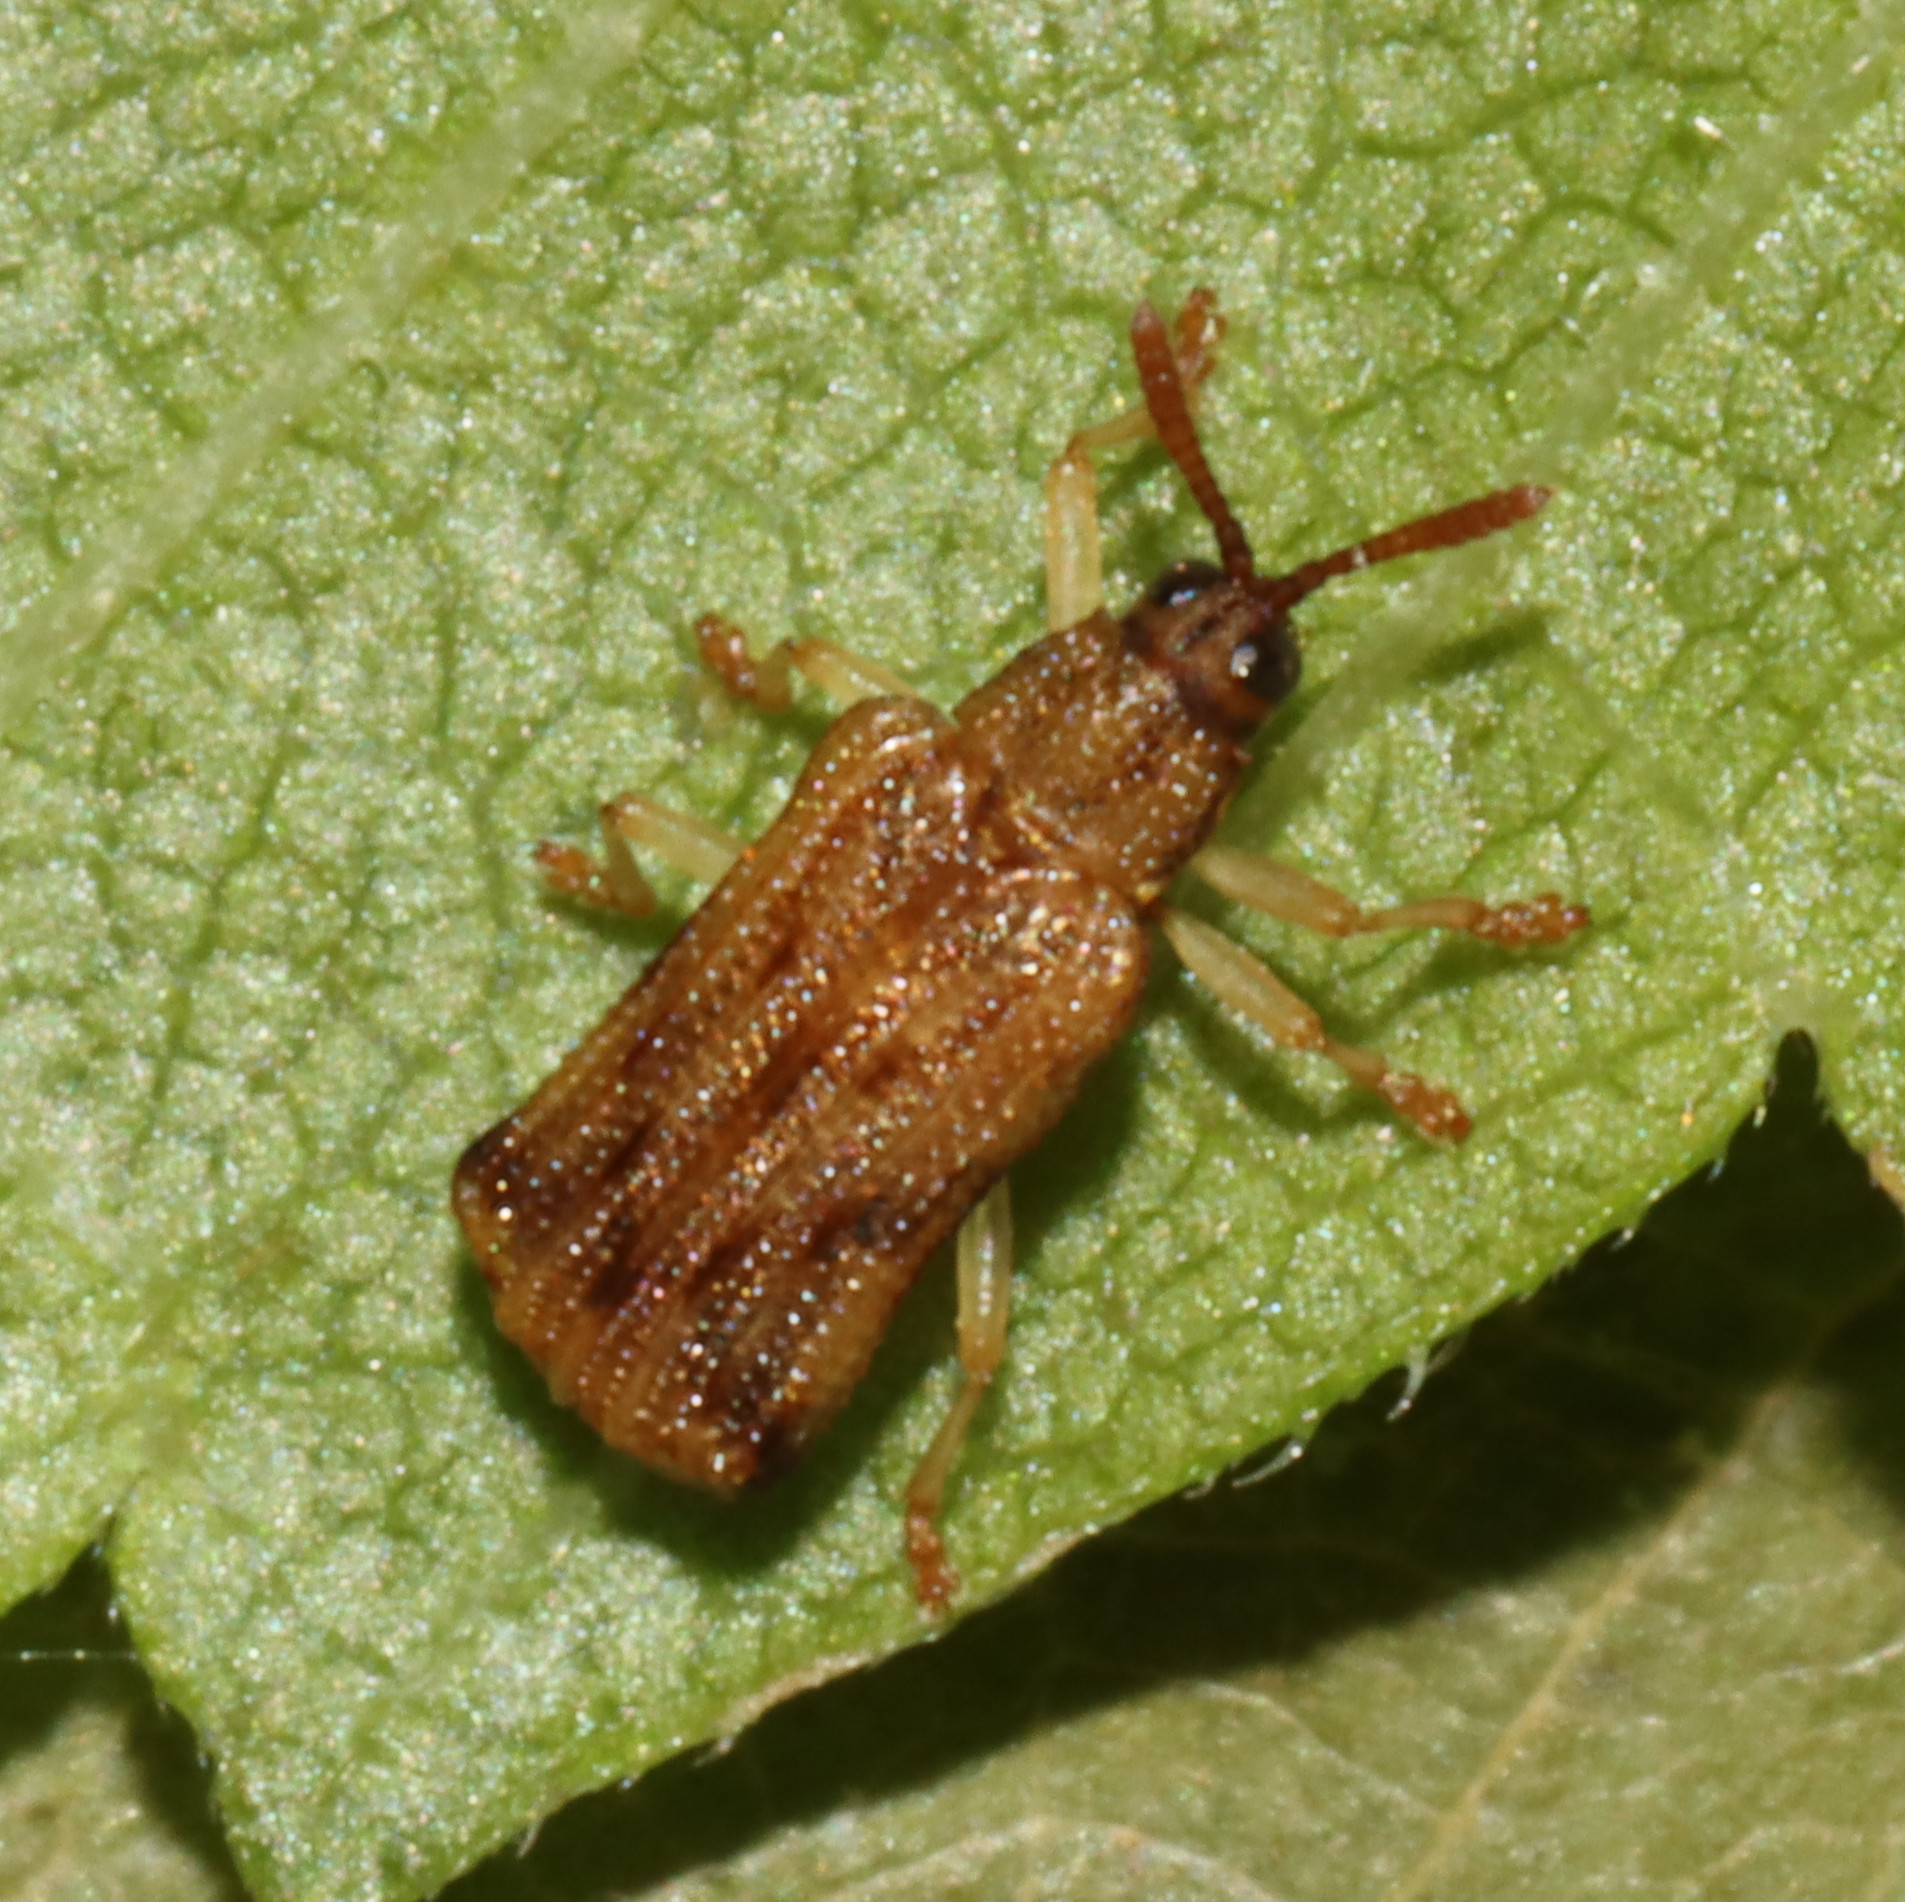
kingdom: Animalia
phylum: Arthropoda
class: Insecta
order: Coleoptera
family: Chrysomelidae
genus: Sumitrosis
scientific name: Sumitrosis rosea
